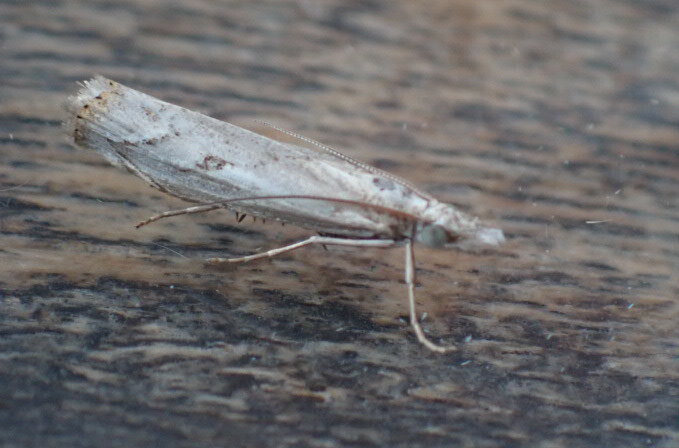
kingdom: Animalia
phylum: Arthropoda
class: Insecta
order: Lepidoptera
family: Crambidae
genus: Agriphila
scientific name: Agriphila inquinatella
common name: Barred grass-veneer
